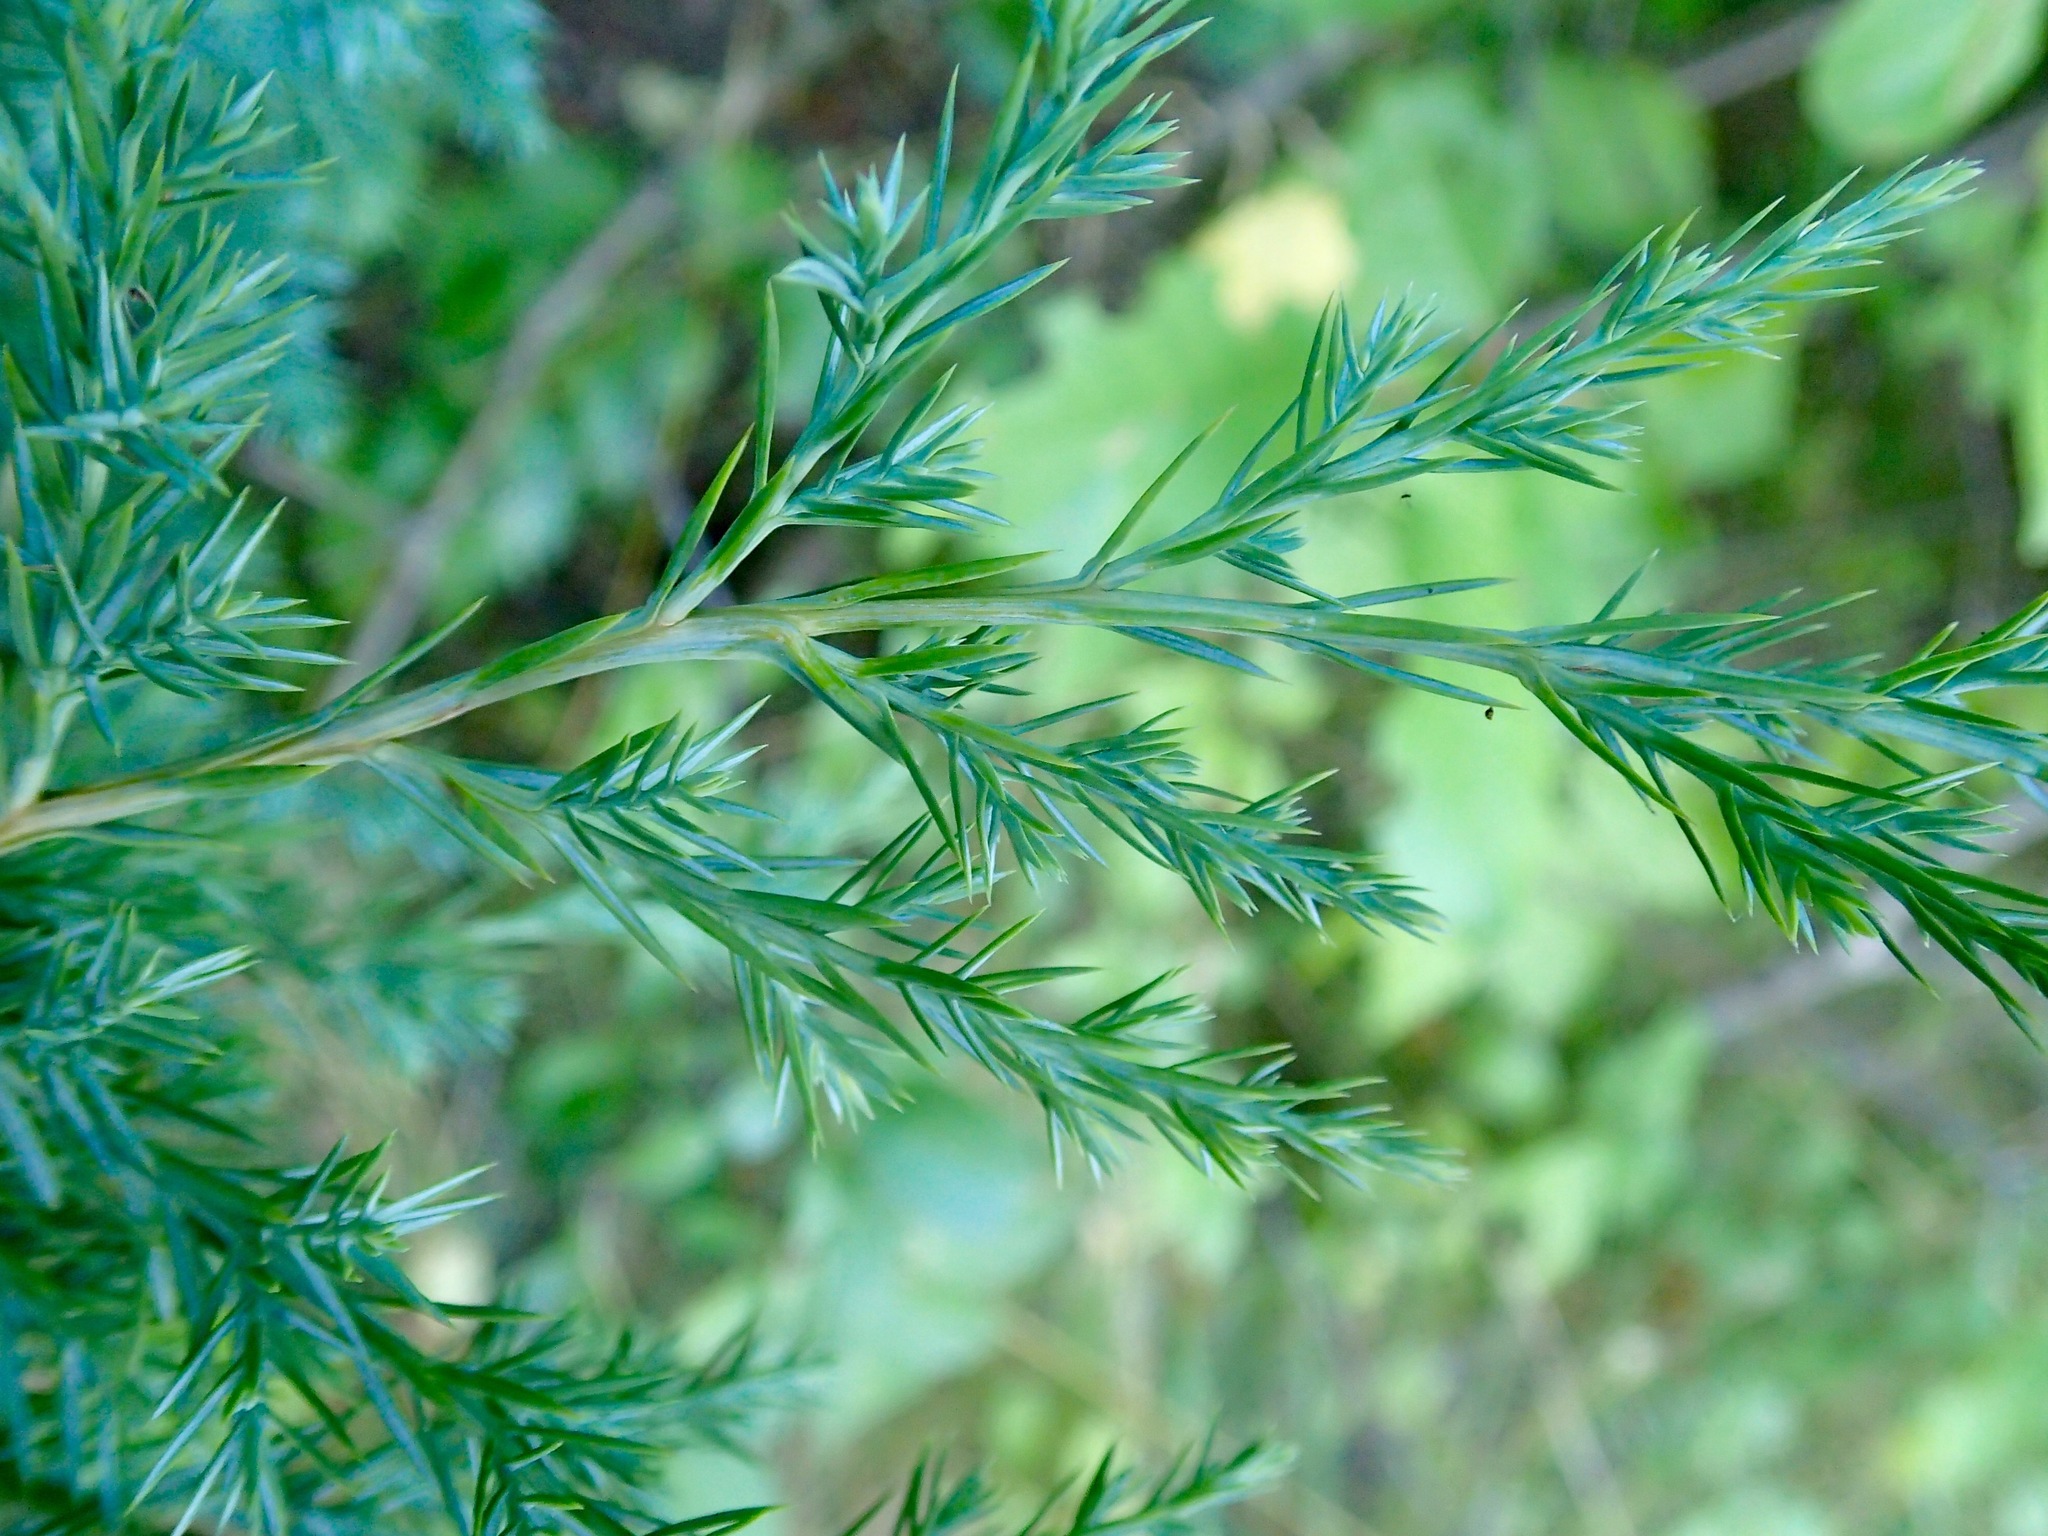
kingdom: Plantae
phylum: Tracheophyta
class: Pinopsida
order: Pinales
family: Cupressaceae
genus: Juniperus
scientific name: Juniperus virginiana
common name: Red juniper
